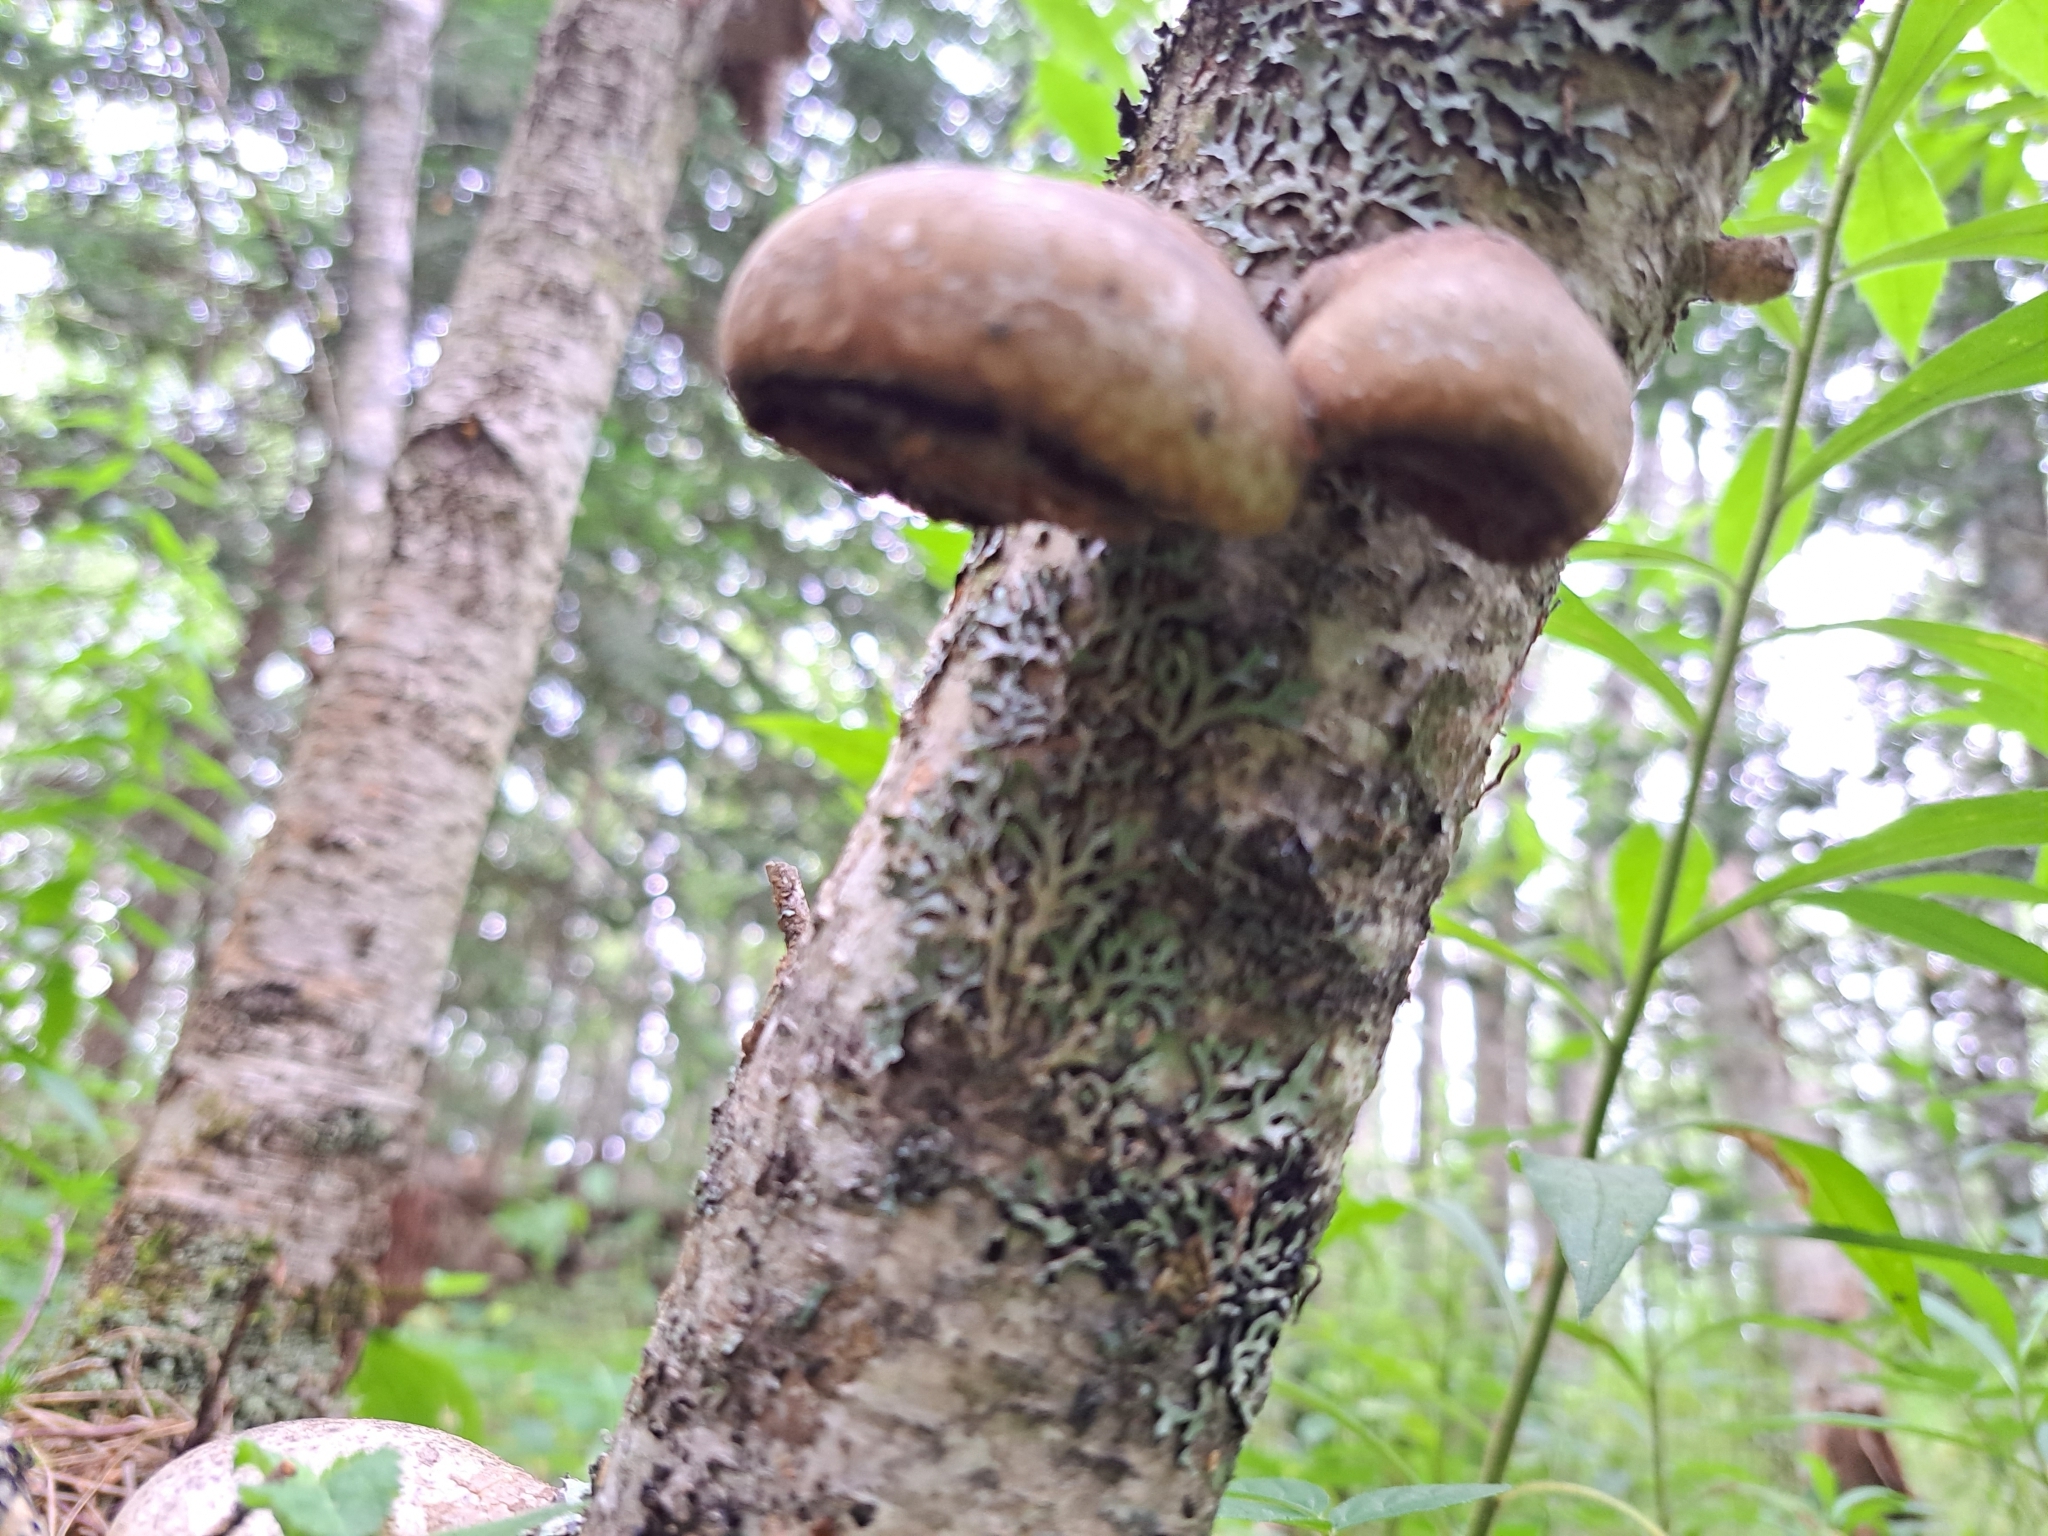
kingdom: Fungi
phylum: Basidiomycota
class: Agaricomycetes
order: Polyporales
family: Fomitopsidaceae
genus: Fomitopsis
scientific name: Fomitopsis betulina
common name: Birch polypore
